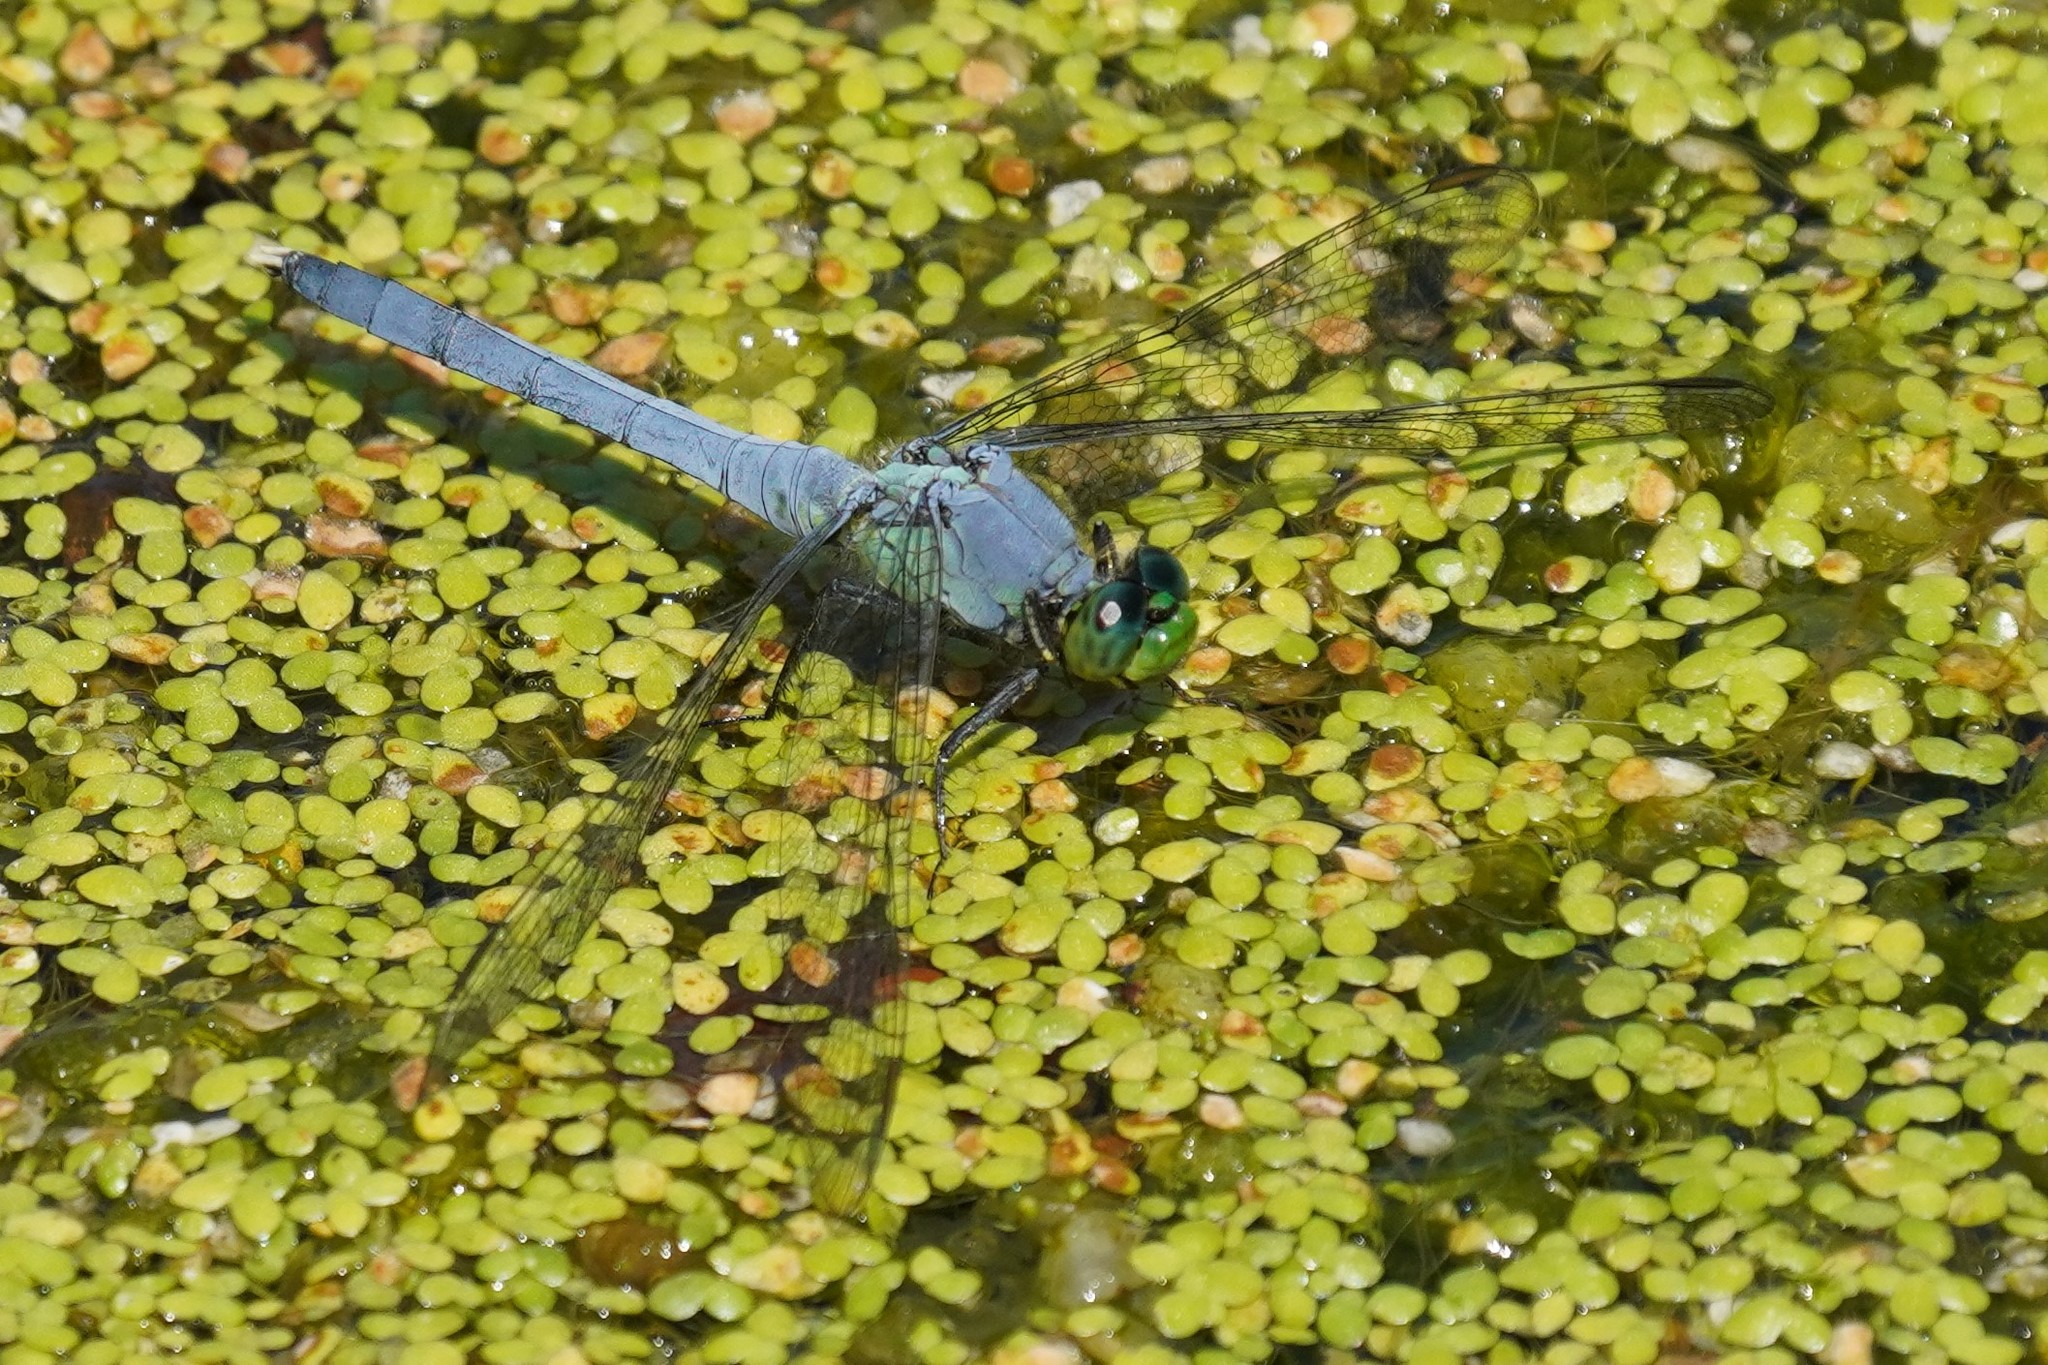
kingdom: Animalia
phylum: Arthropoda
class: Insecta
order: Odonata
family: Libellulidae
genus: Erythemis
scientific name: Erythemis simplicicollis
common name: Eastern pondhawk
